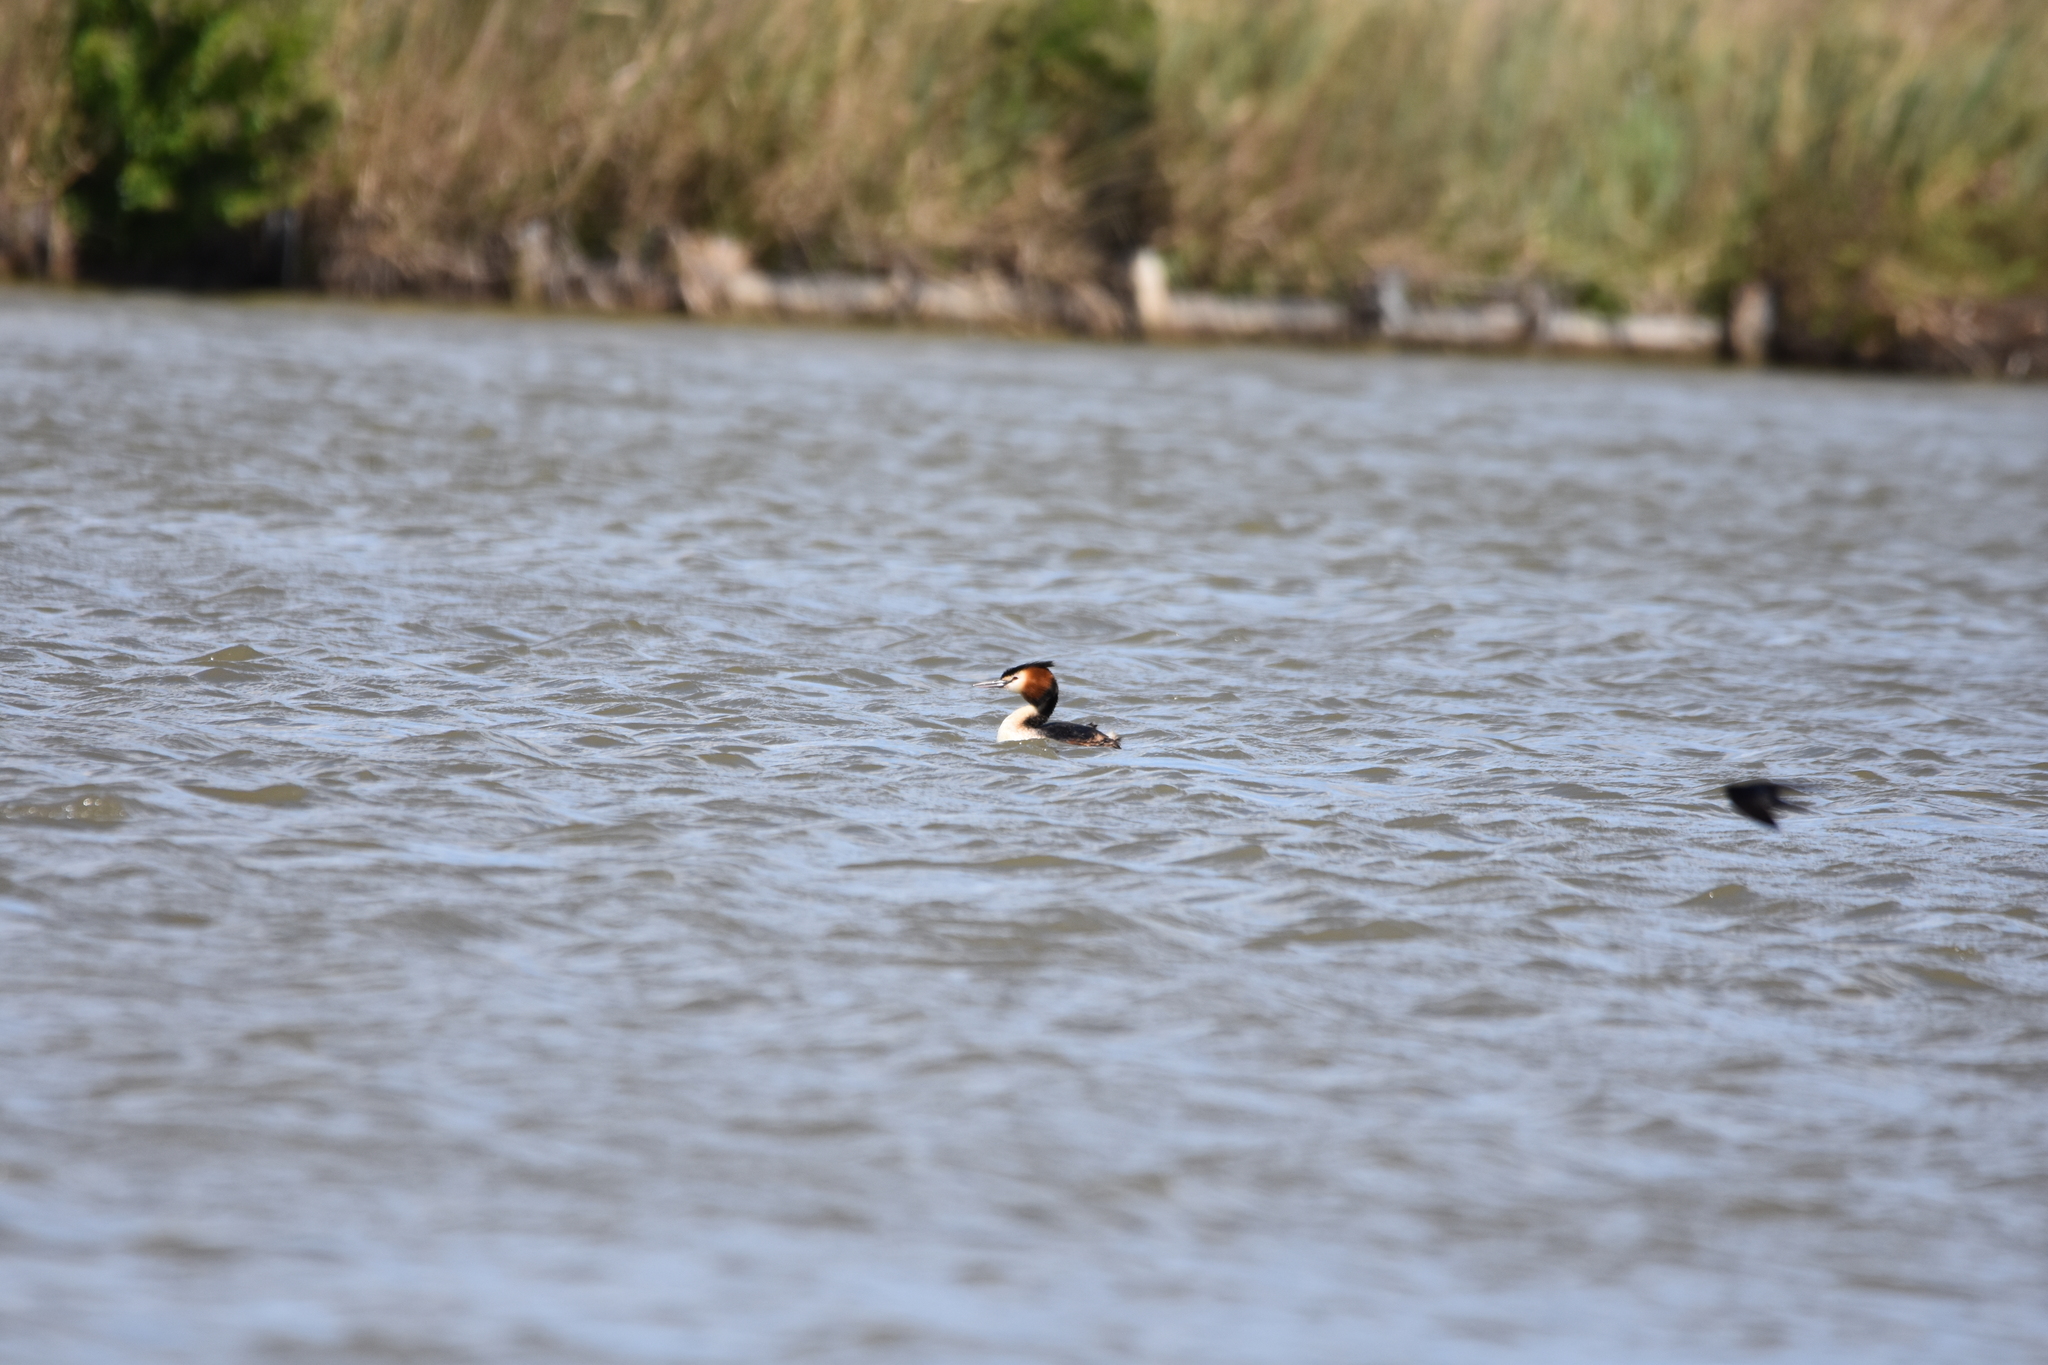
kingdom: Animalia
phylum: Chordata
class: Aves
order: Podicipediformes
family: Podicipedidae
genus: Podiceps
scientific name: Podiceps cristatus
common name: Great crested grebe
